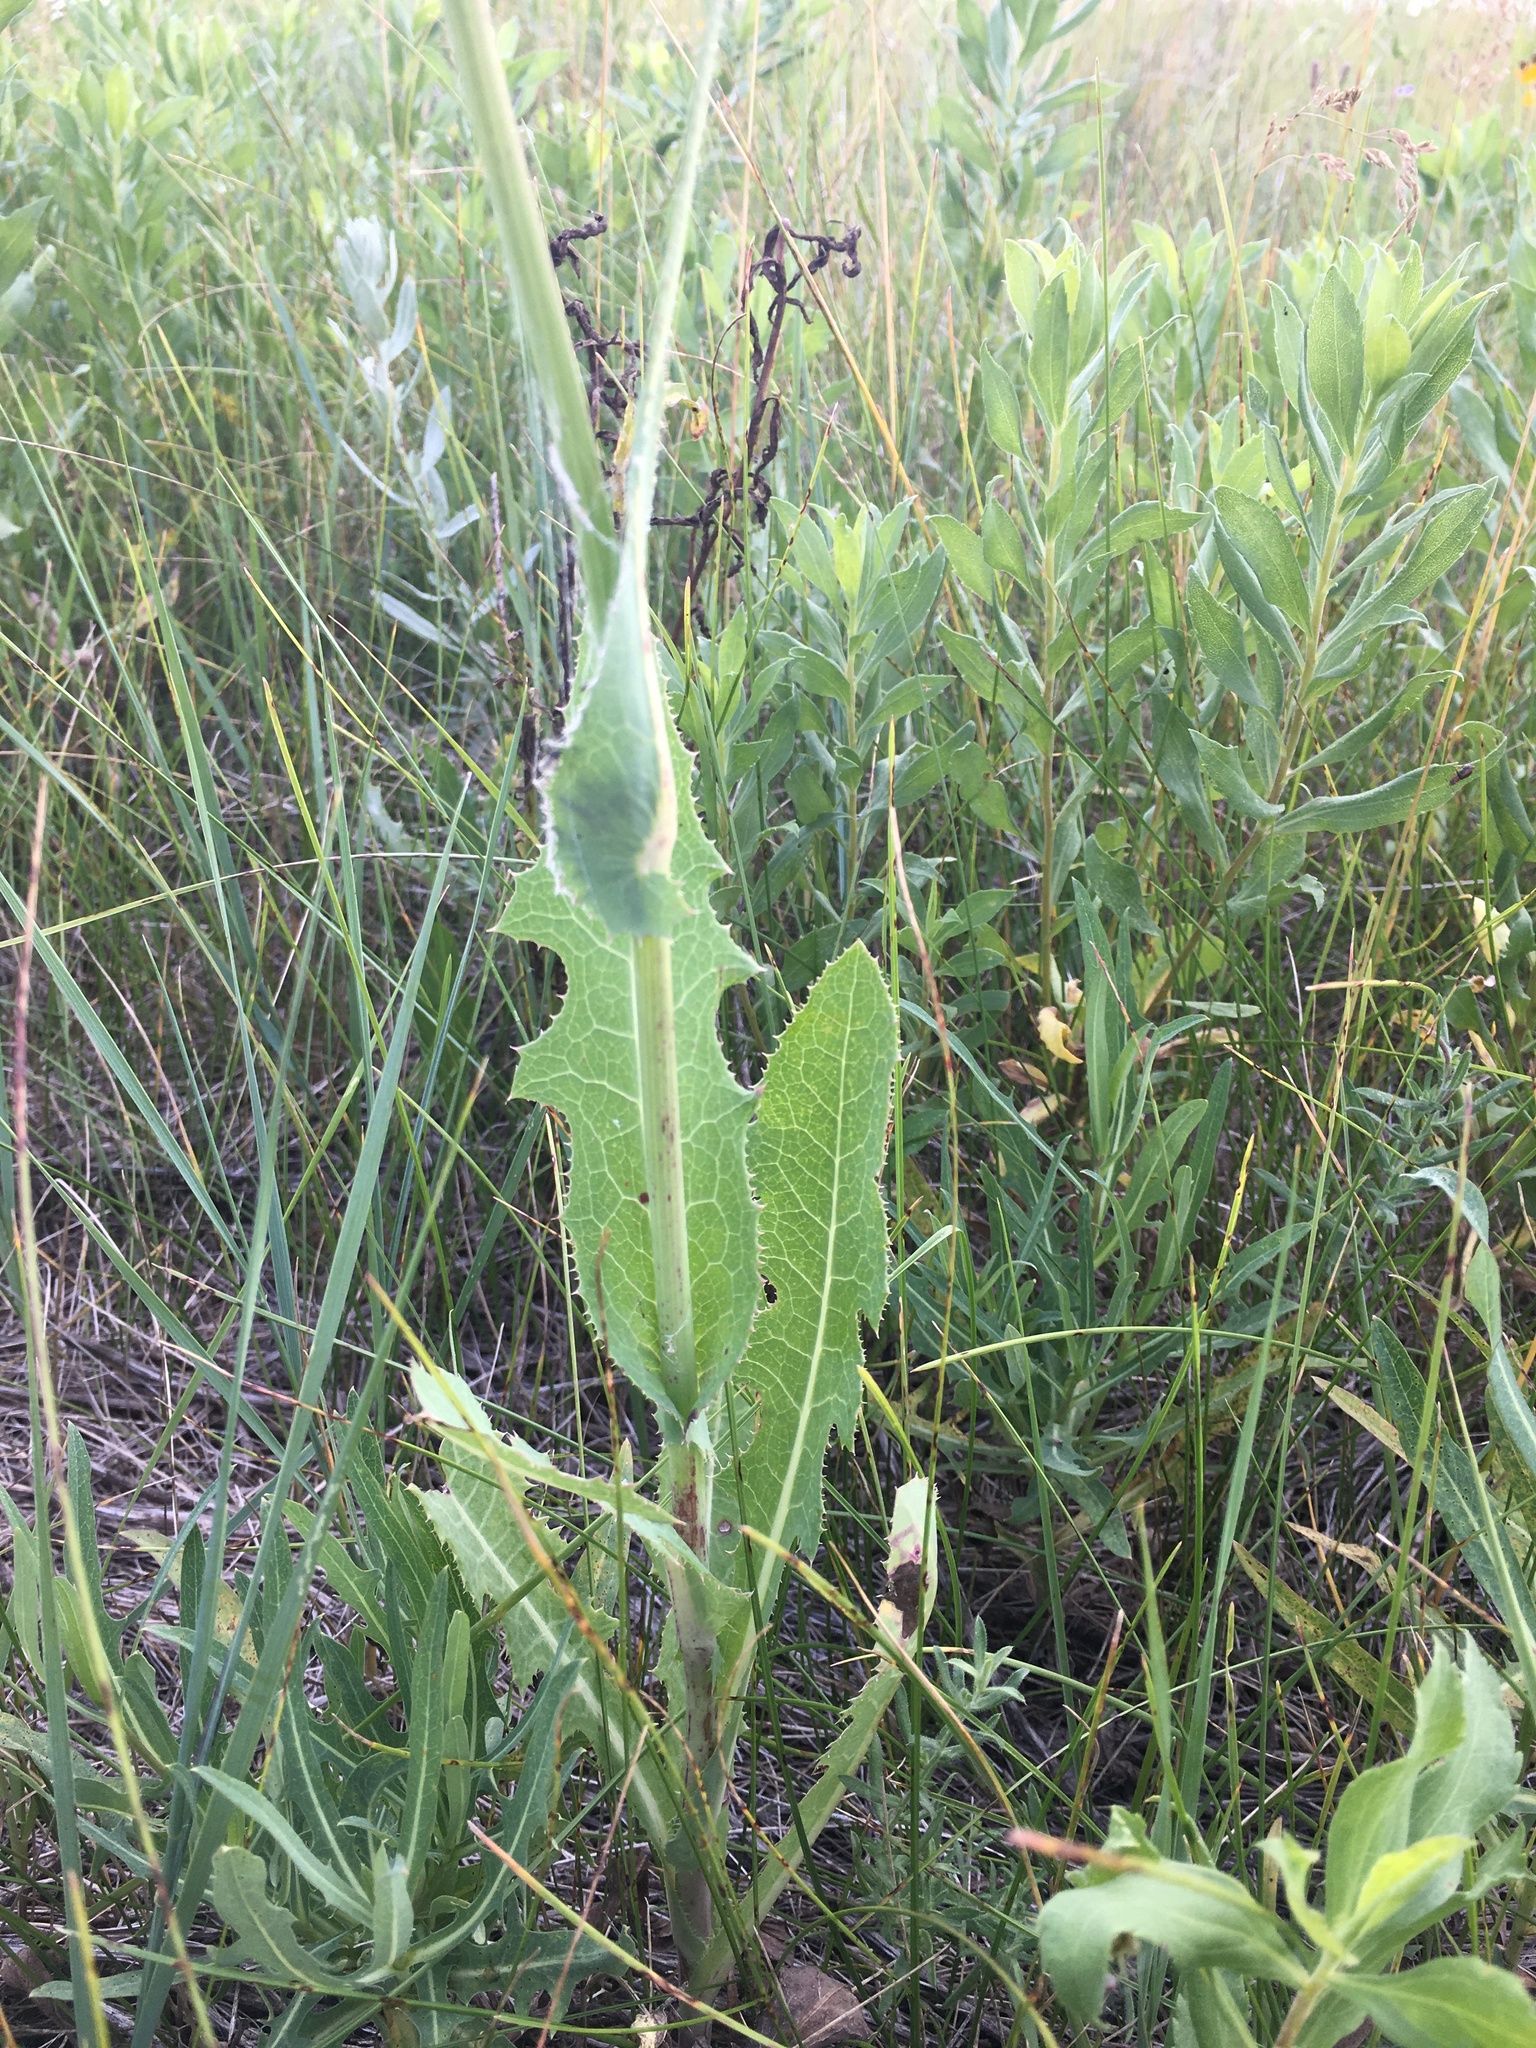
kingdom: Plantae
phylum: Tracheophyta
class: Magnoliopsida
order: Asterales
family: Asteraceae
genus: Sonchus
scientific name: Sonchus arvensis
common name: Perennial sow-thistle
